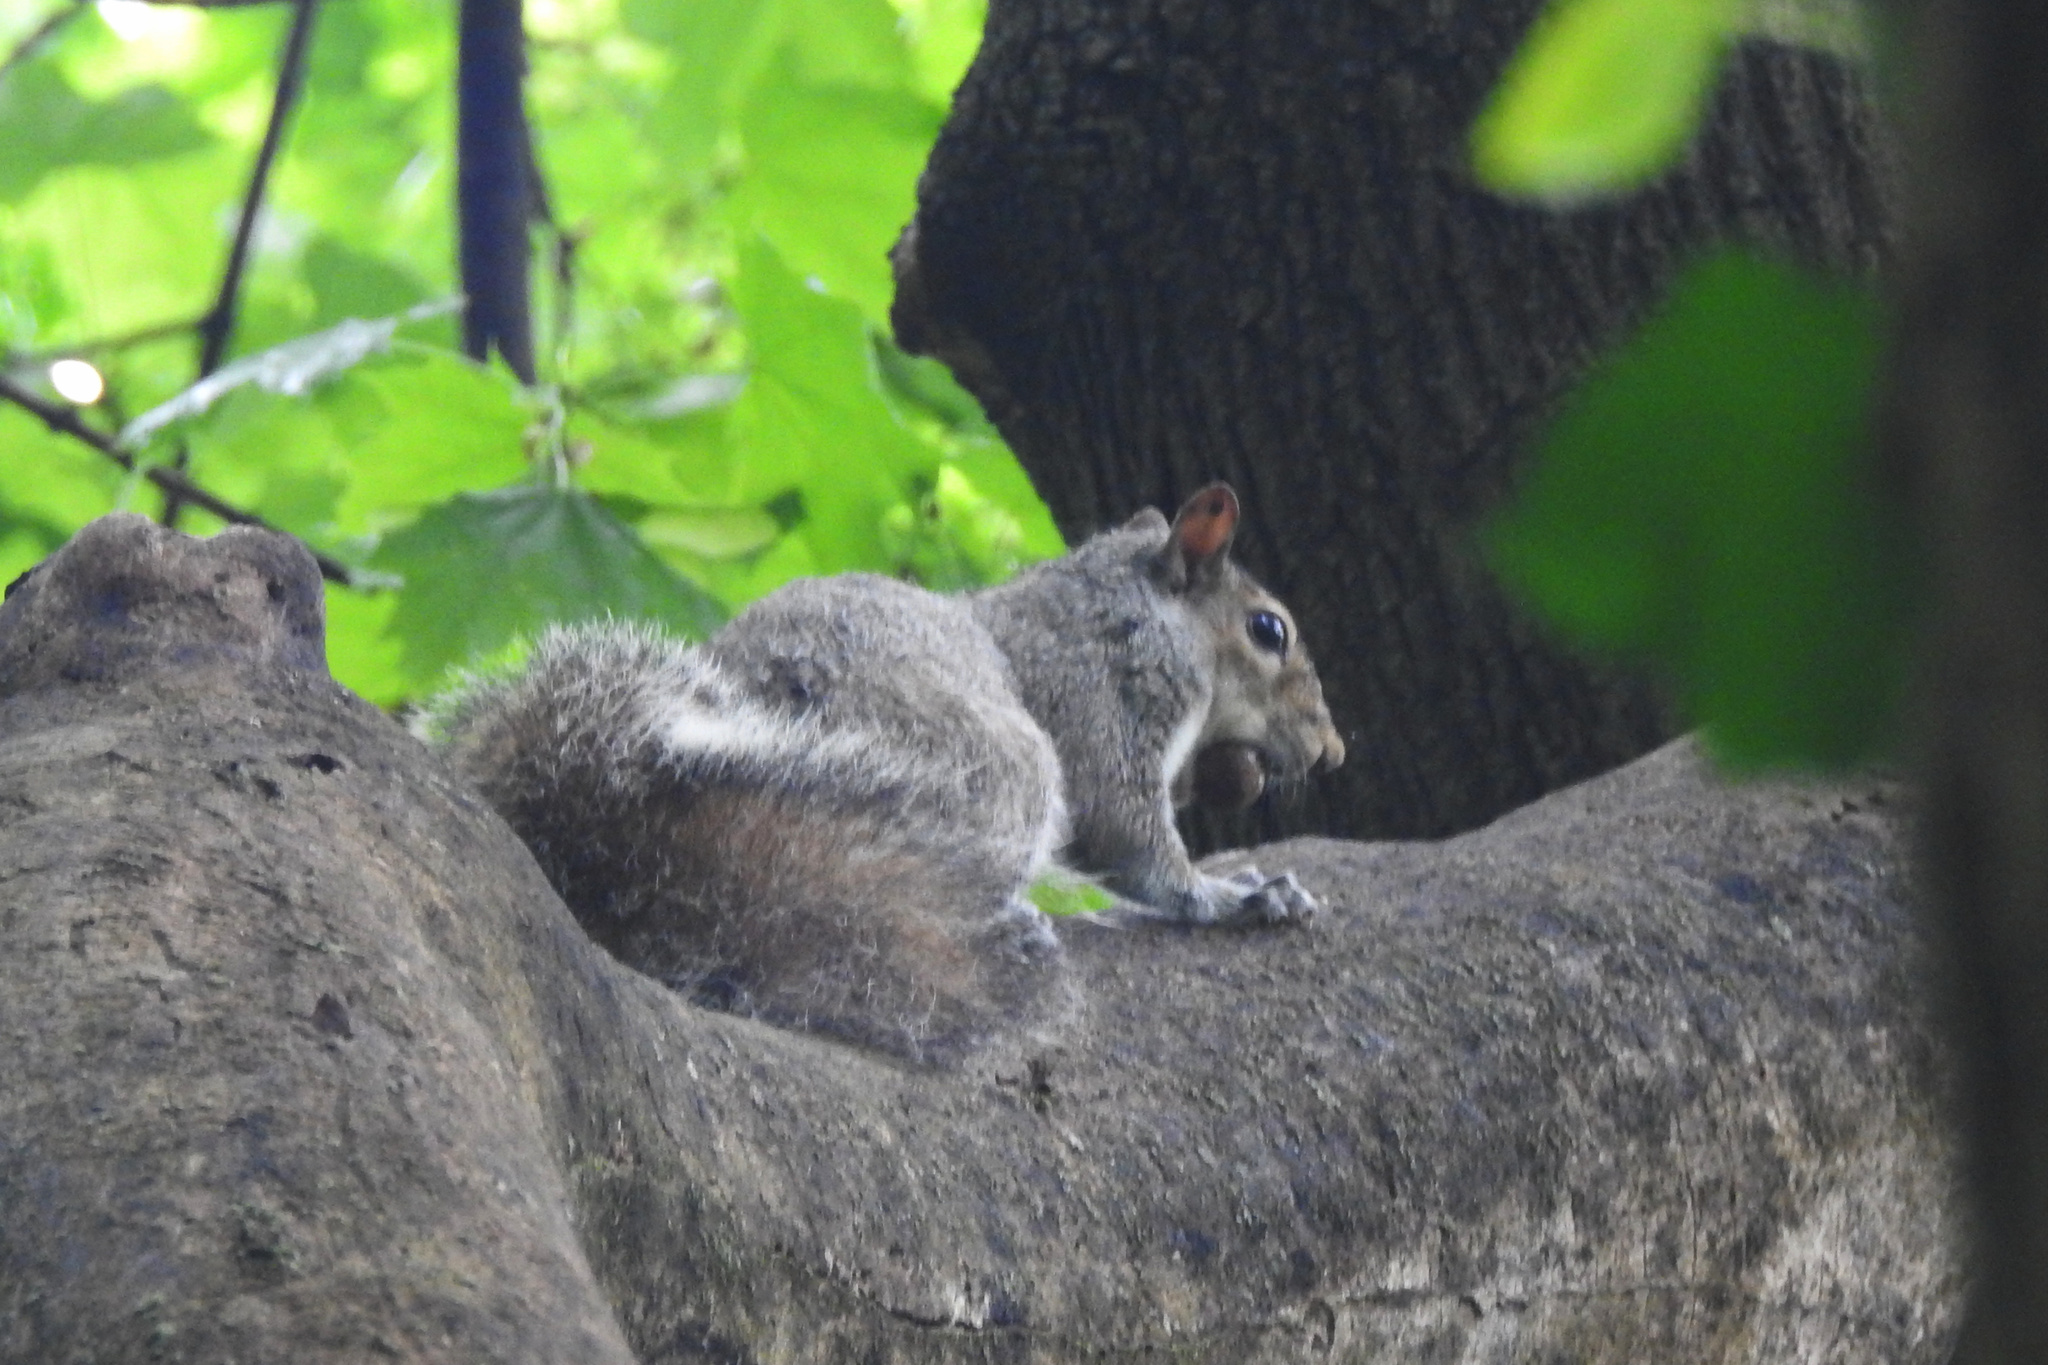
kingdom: Animalia
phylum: Chordata
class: Mammalia
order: Rodentia
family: Sciuridae
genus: Sciurus
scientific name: Sciurus carolinensis
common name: Eastern gray squirrel
